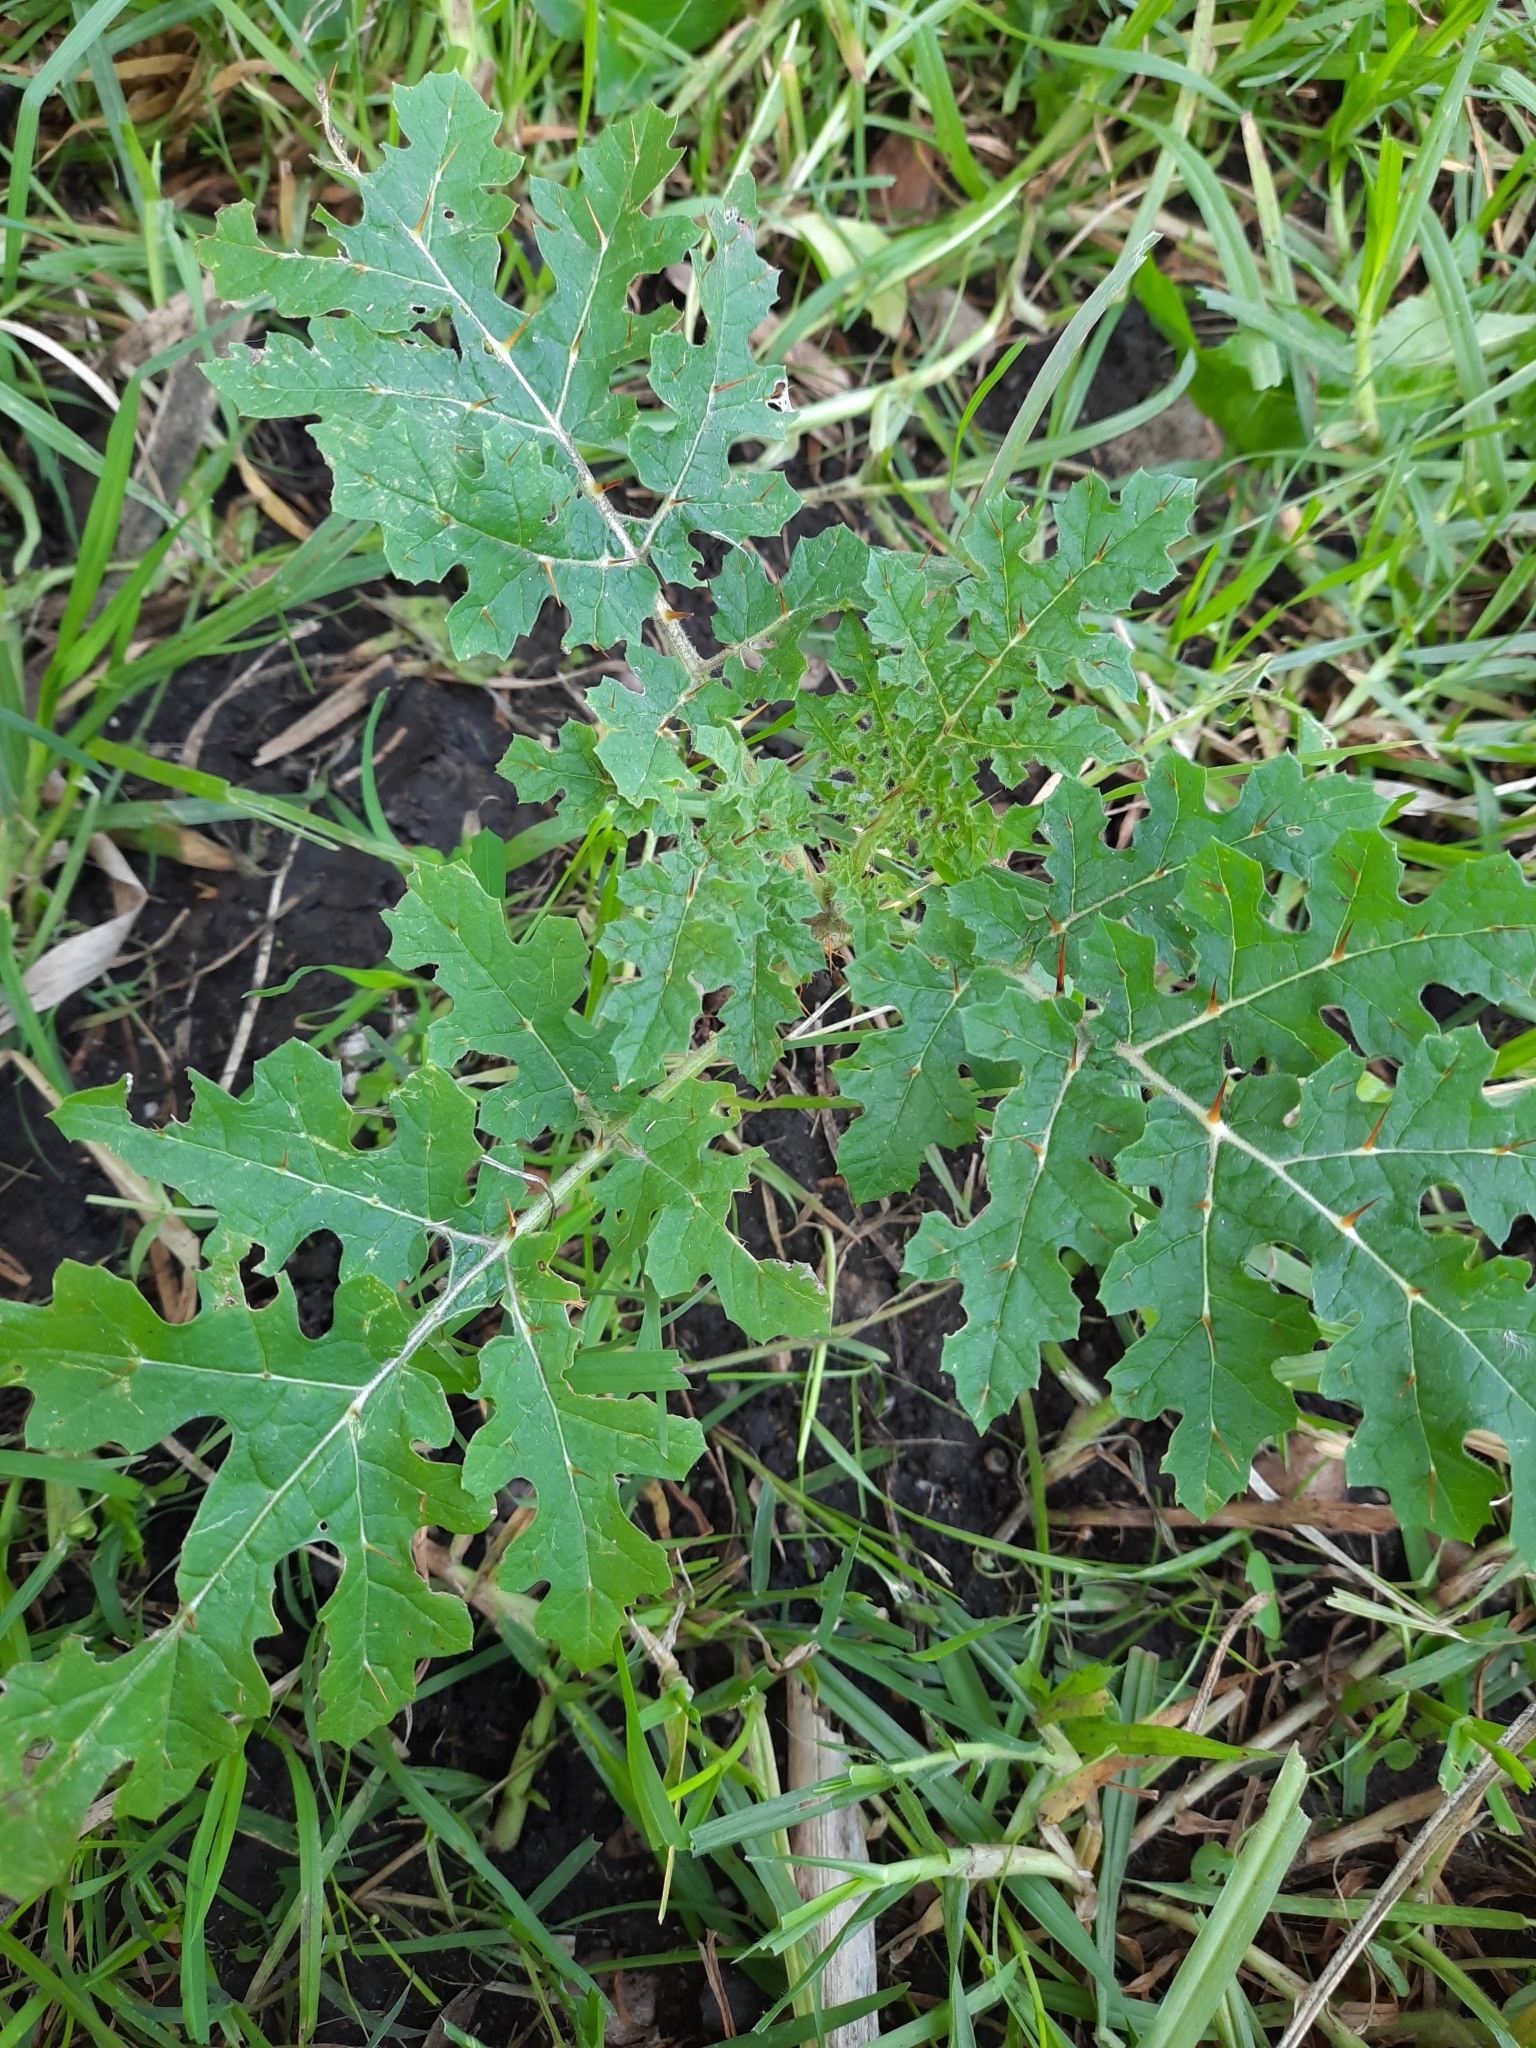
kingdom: Plantae
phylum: Tracheophyta
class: Magnoliopsida
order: Solanales
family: Solanaceae
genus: Solanum
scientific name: Solanum sisymbriifolium
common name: Red buffalo-bur
